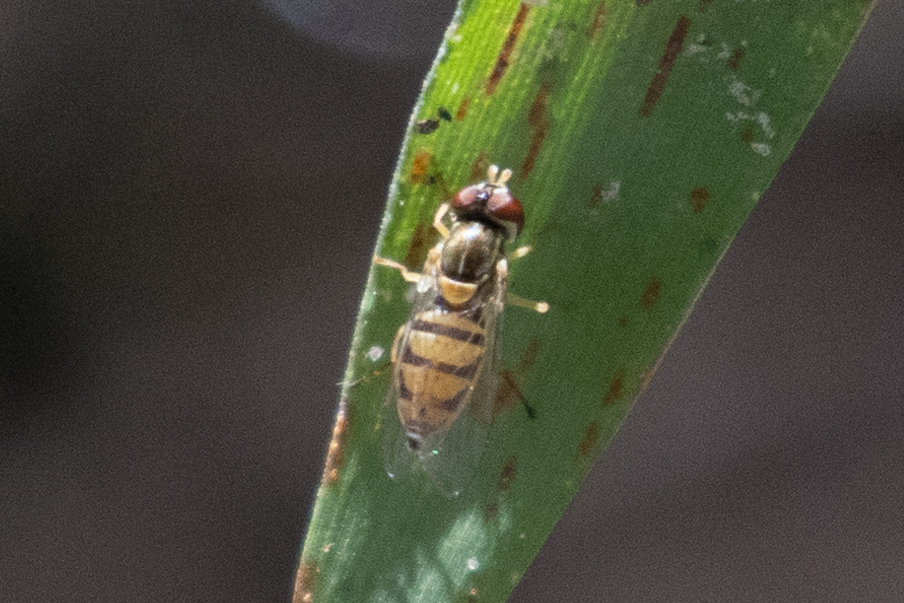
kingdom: Animalia
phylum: Arthropoda
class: Insecta
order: Diptera
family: Syrphidae
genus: Toxomerus
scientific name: Toxomerus marginatus
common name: Syrphid fly
